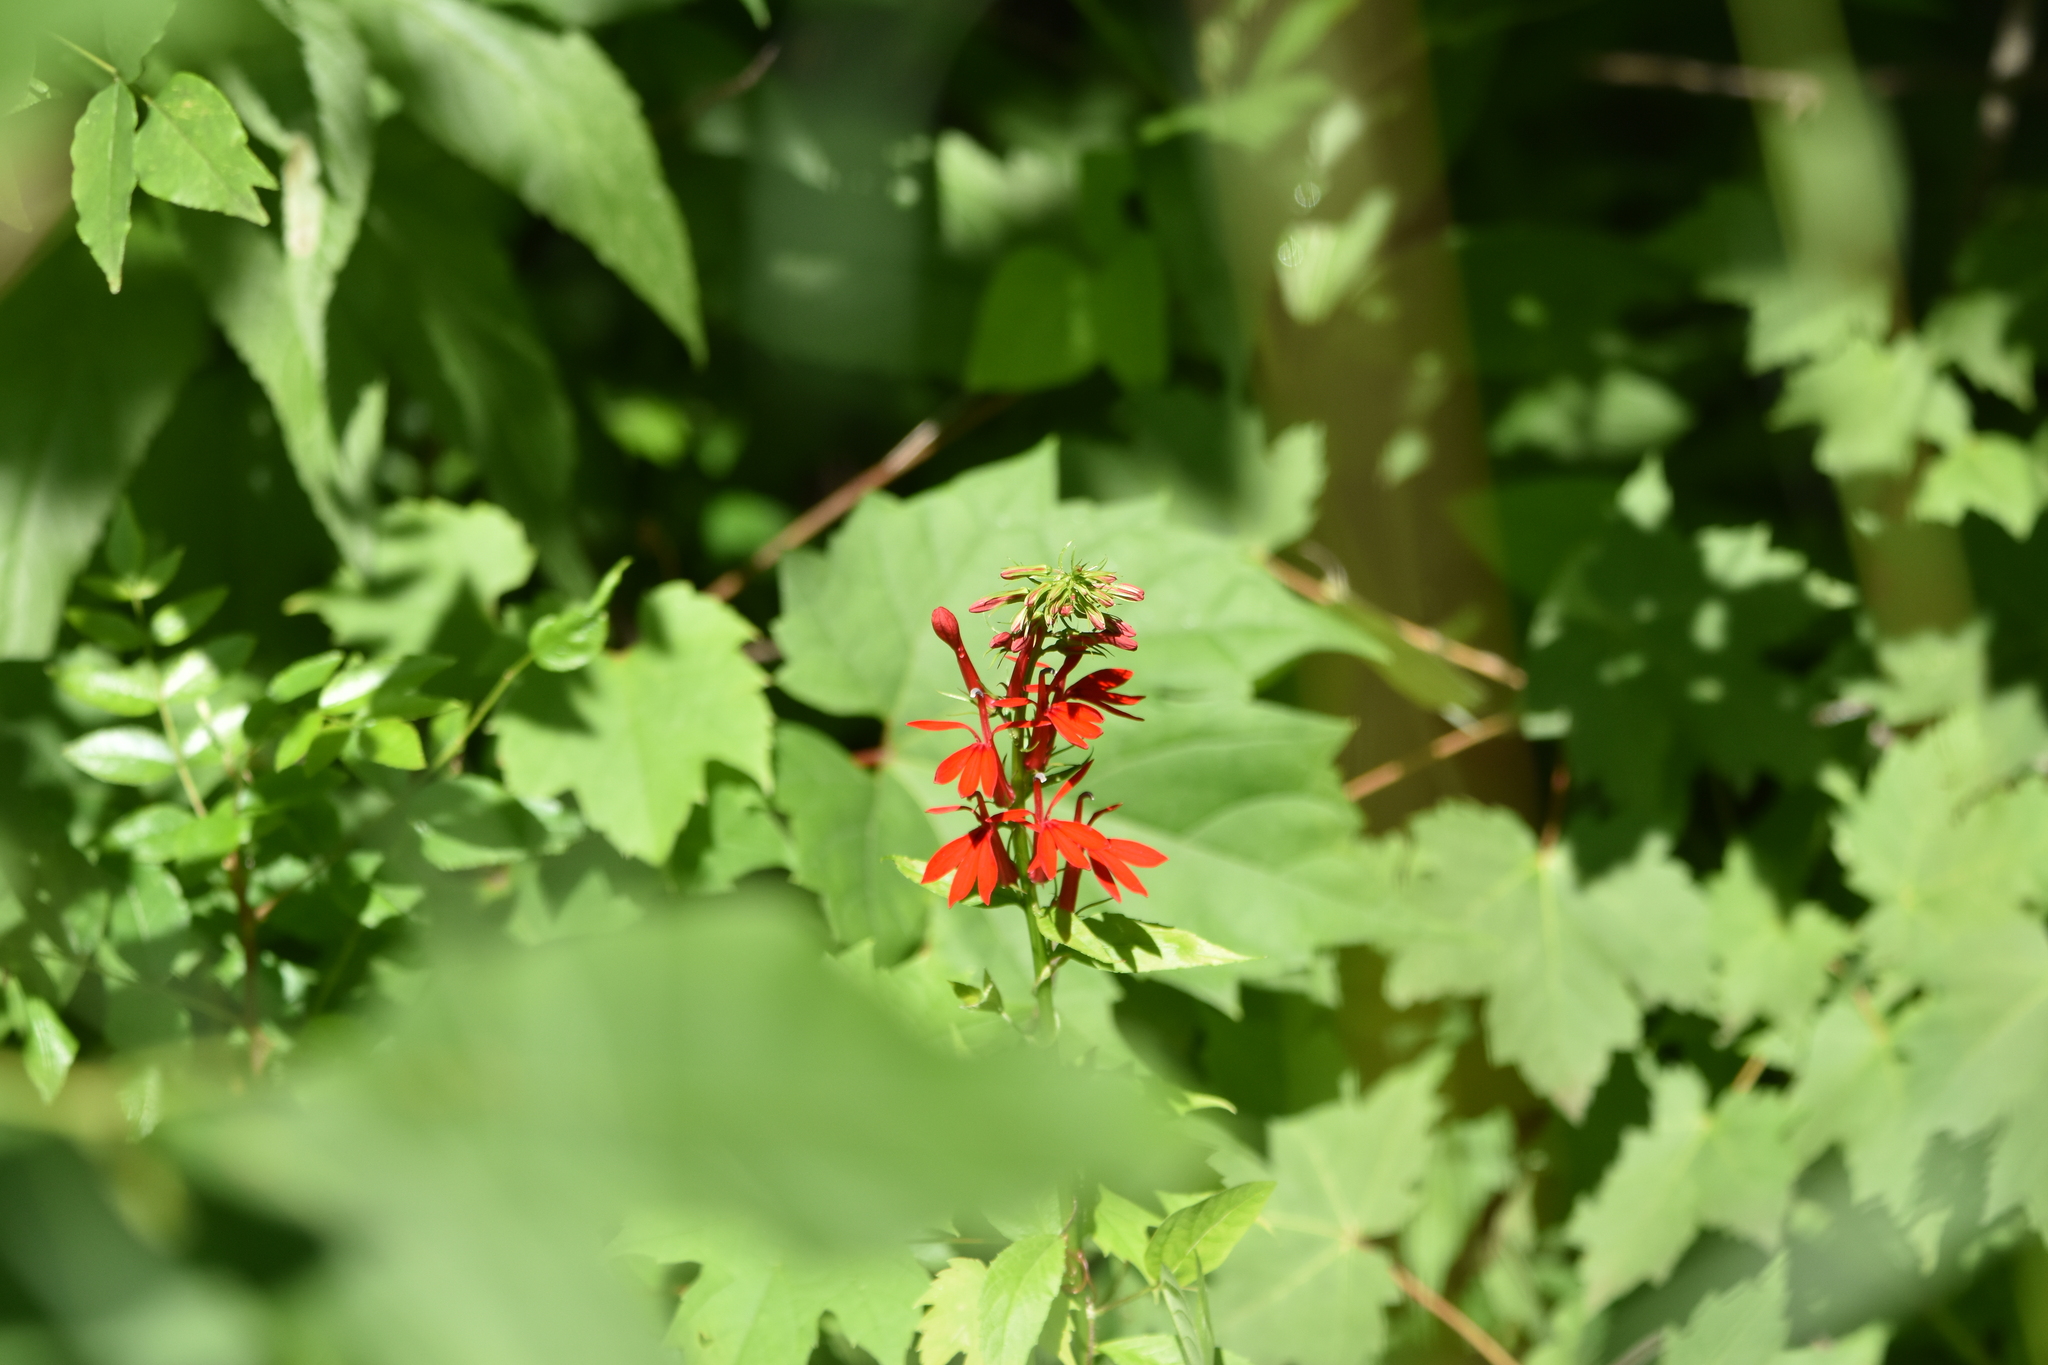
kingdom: Plantae
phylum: Tracheophyta
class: Magnoliopsida
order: Asterales
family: Campanulaceae
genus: Lobelia
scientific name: Lobelia cardinalis
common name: Cardinal flower
